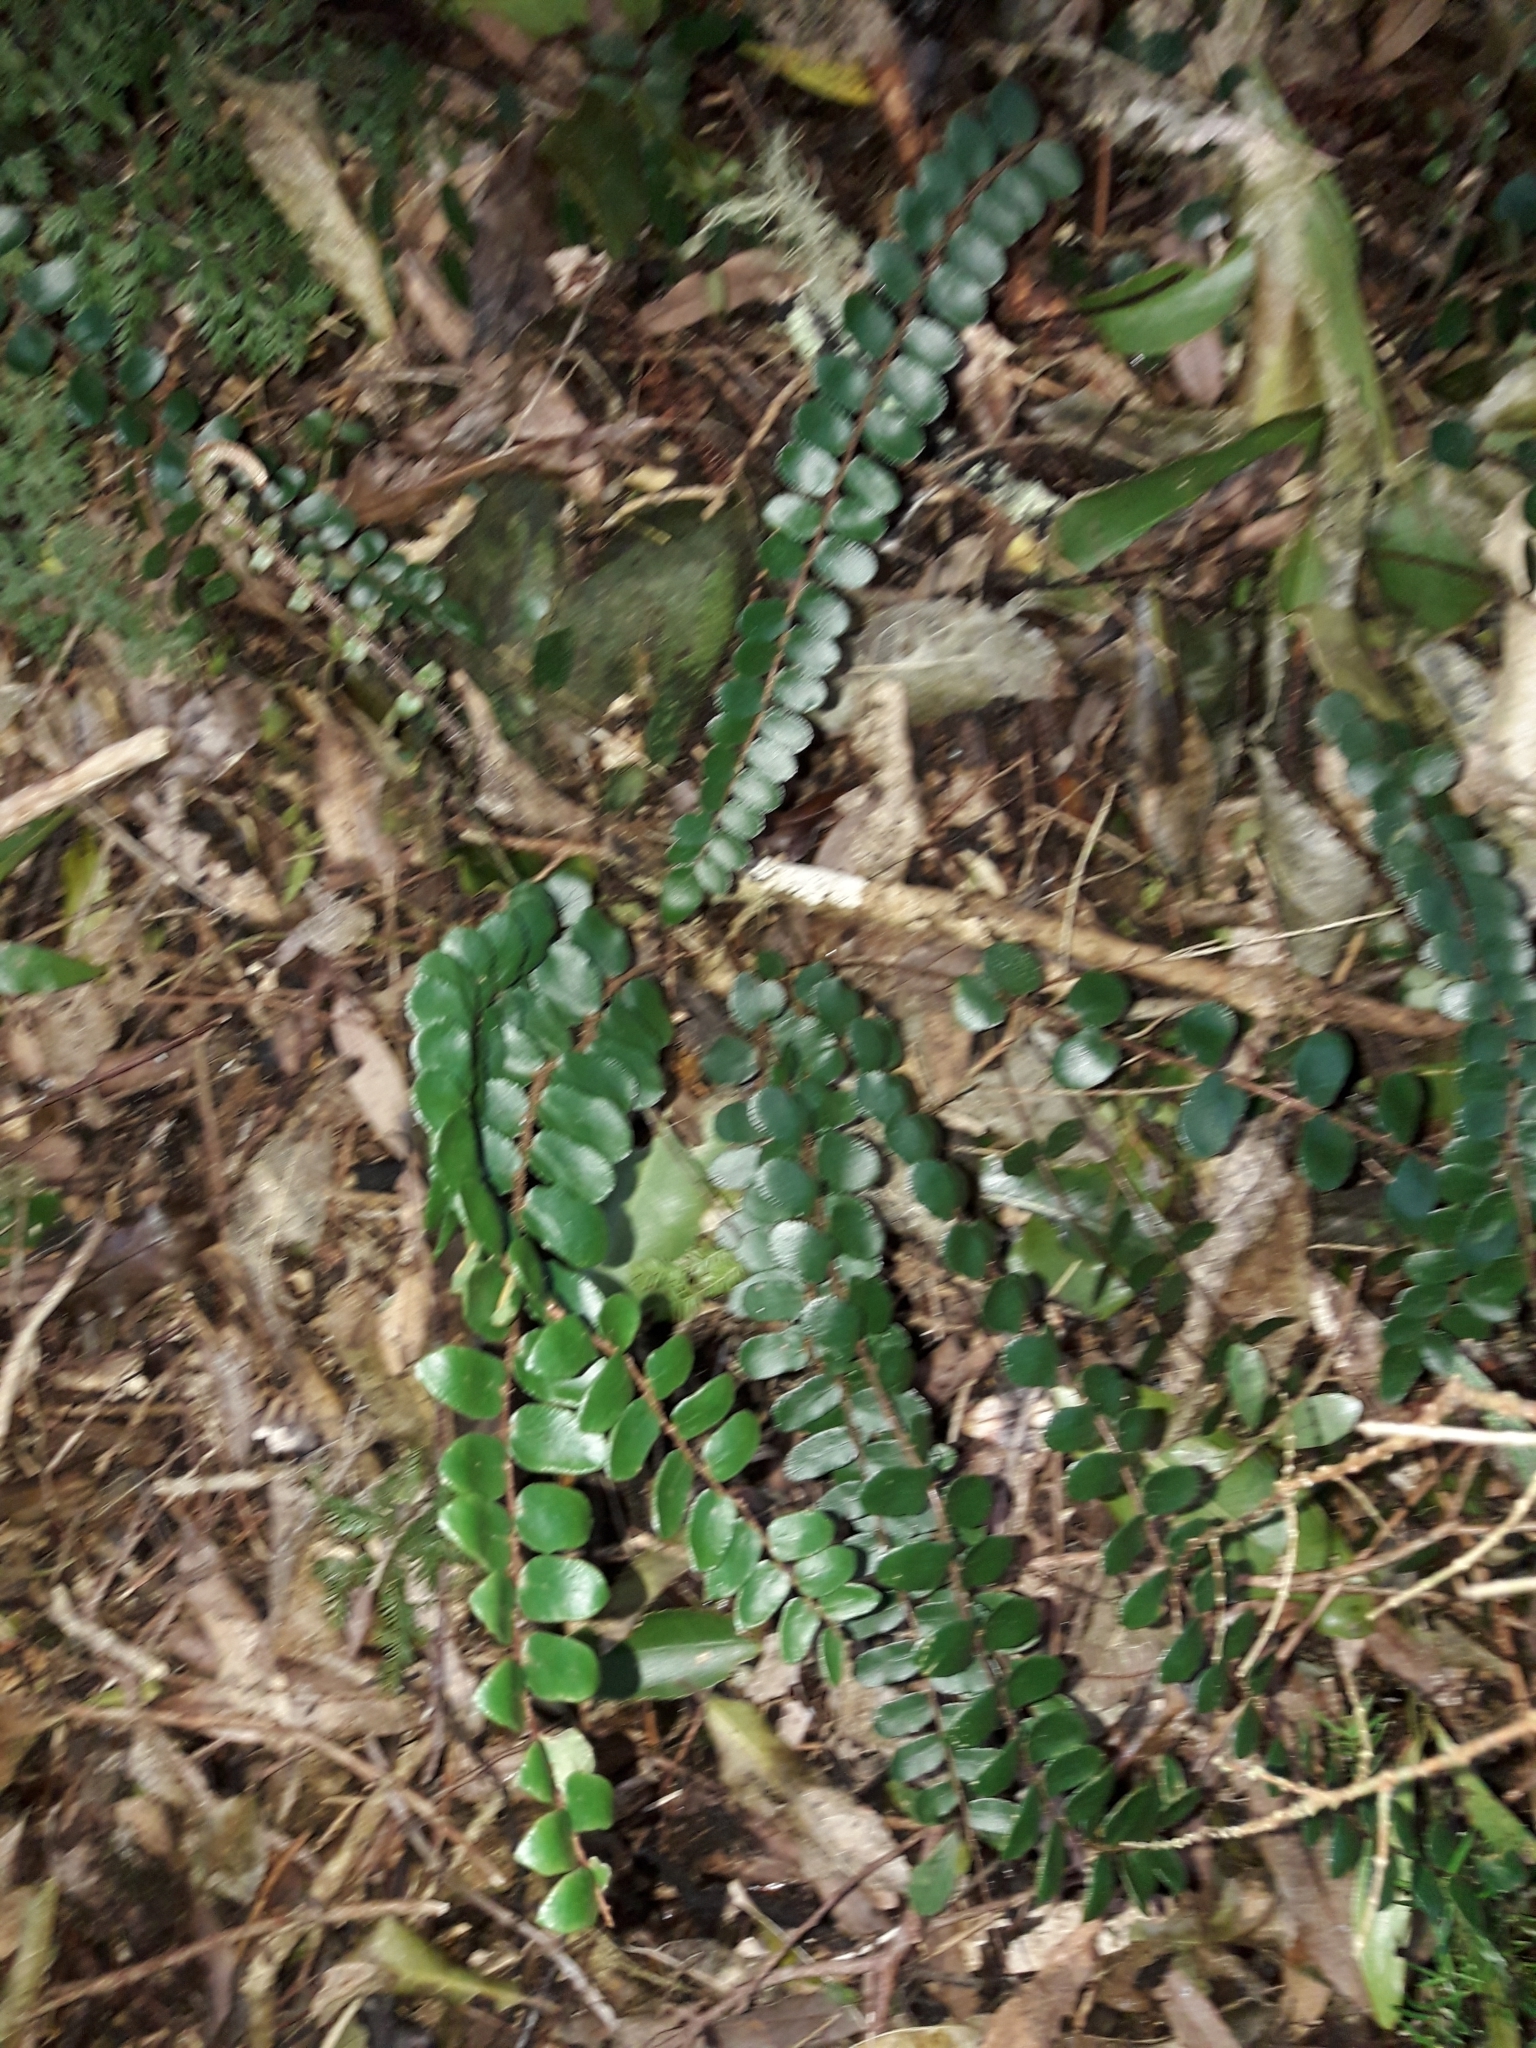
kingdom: Plantae
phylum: Tracheophyta
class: Polypodiopsida
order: Polypodiales
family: Pteridaceae
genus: Pellaea
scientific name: Pellaea rotundifolia
